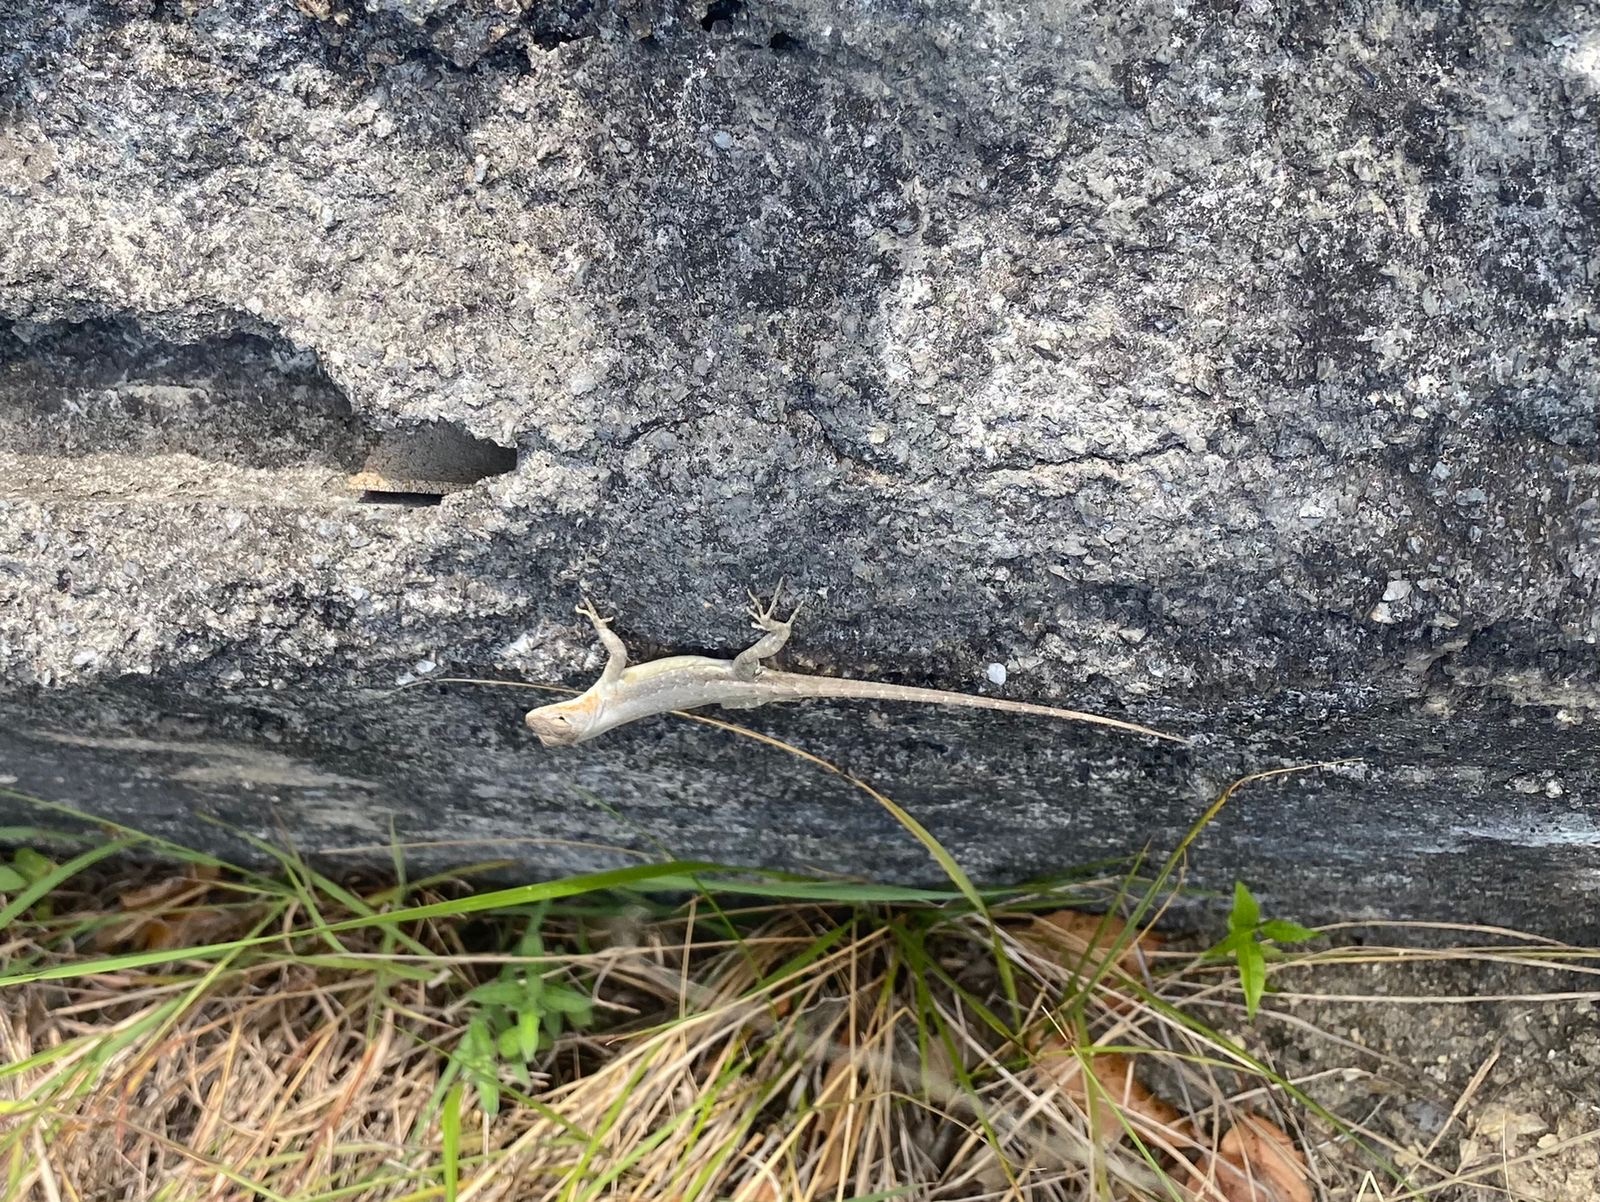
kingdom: Animalia
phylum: Chordata
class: Squamata
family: Phrynosomatidae
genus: Sceloporus
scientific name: Sceloporus couchii
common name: Couch's spiny lizard
